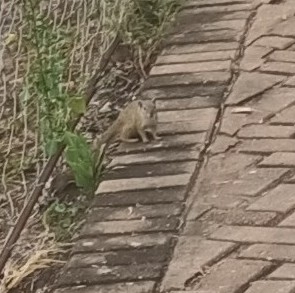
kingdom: Animalia
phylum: Chordata
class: Mammalia
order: Rodentia
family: Sciuridae
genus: Paraxerus
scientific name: Paraxerus cepapi
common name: Smith's bush squirrel
